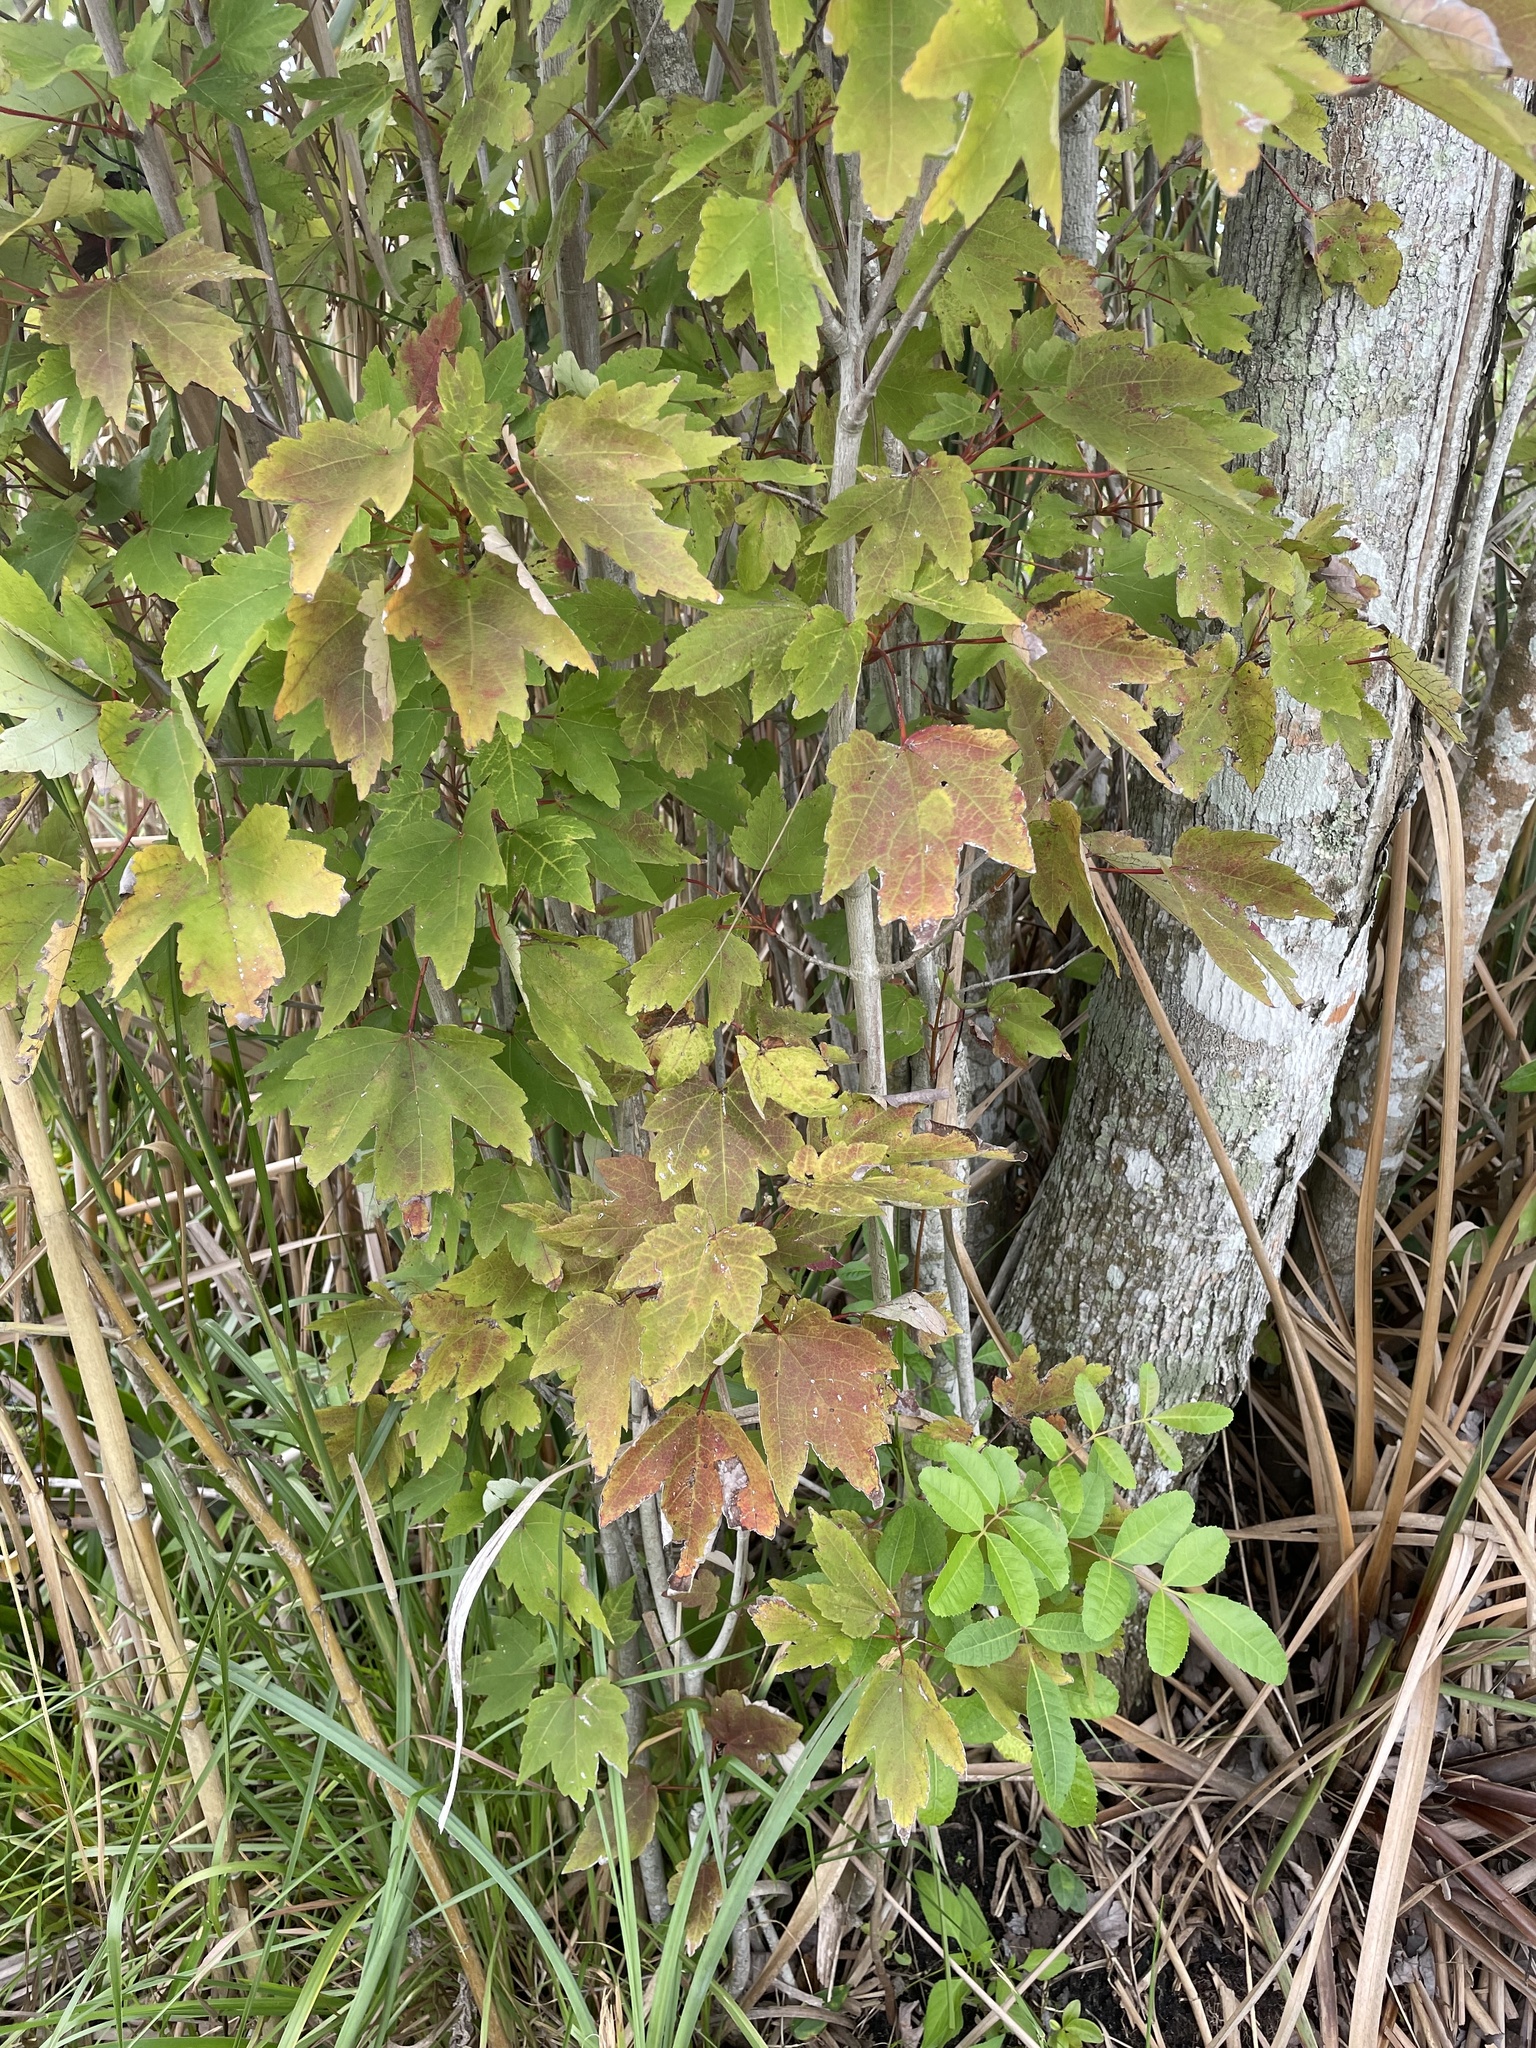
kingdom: Plantae
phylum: Tracheophyta
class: Magnoliopsida
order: Sapindales
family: Sapindaceae
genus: Acer
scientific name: Acer rubrum
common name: Red maple
